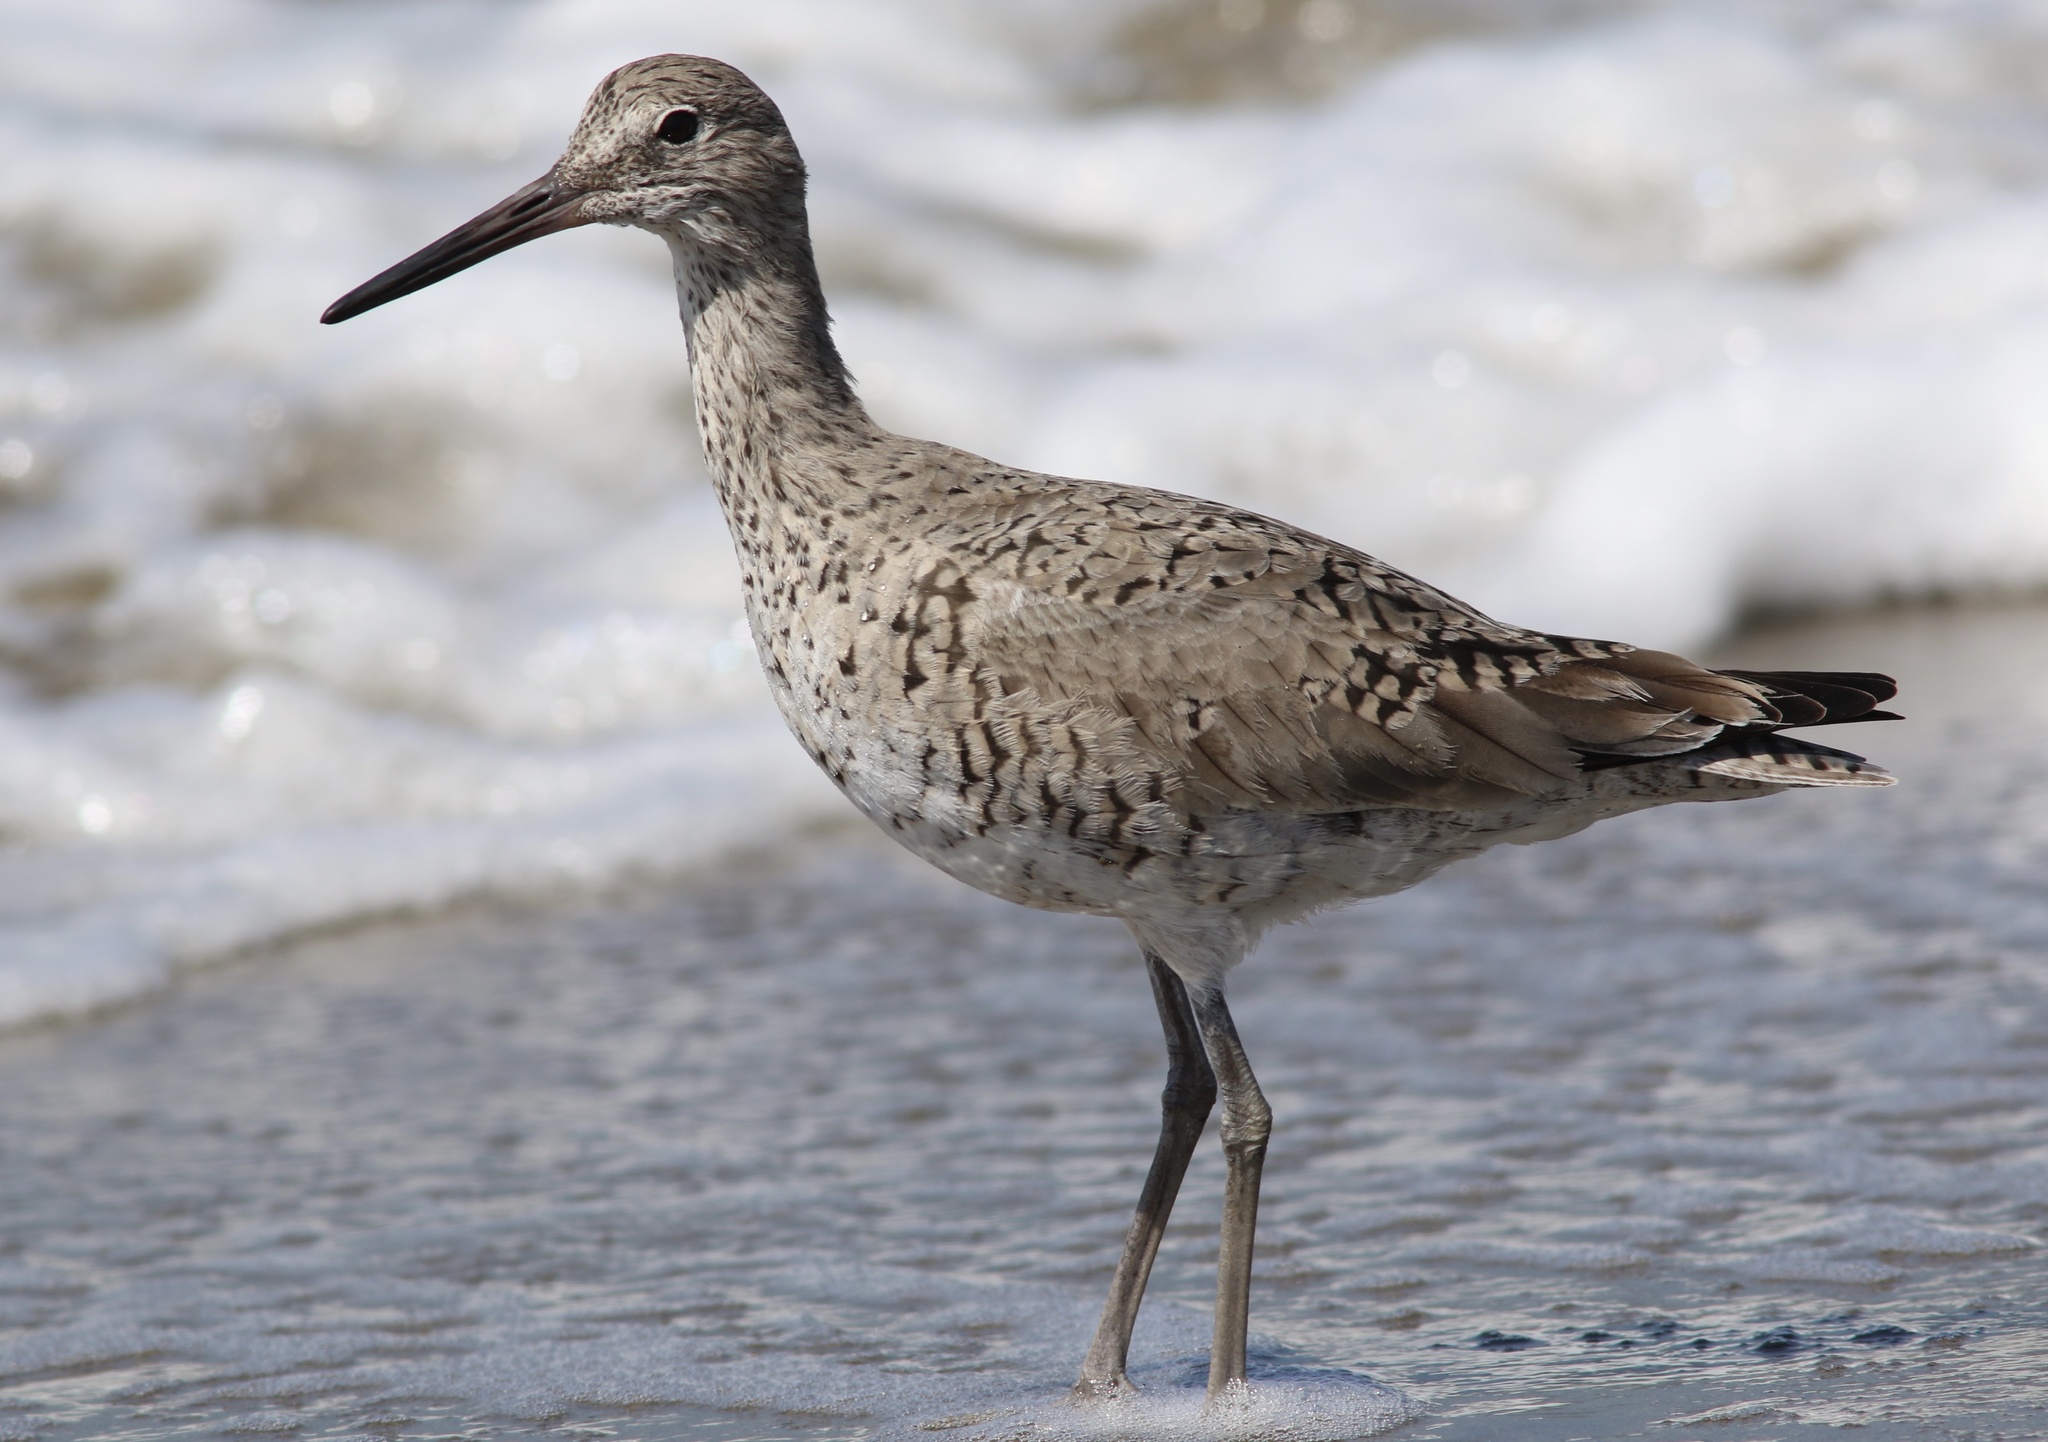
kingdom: Animalia
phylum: Chordata
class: Aves
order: Charadriiformes
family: Scolopacidae
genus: Tringa
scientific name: Tringa semipalmata
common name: Willet
